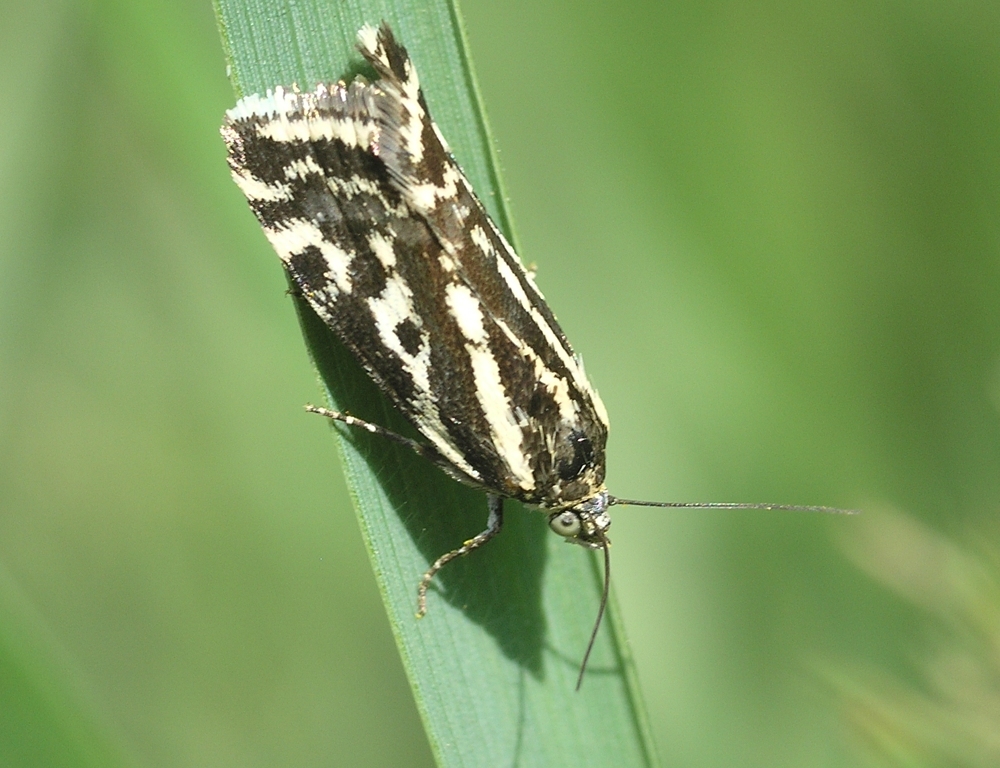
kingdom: Animalia
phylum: Arthropoda
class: Insecta
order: Lepidoptera
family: Noctuidae
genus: Acontia
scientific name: Acontia trabealis
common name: Spotted sulphur
